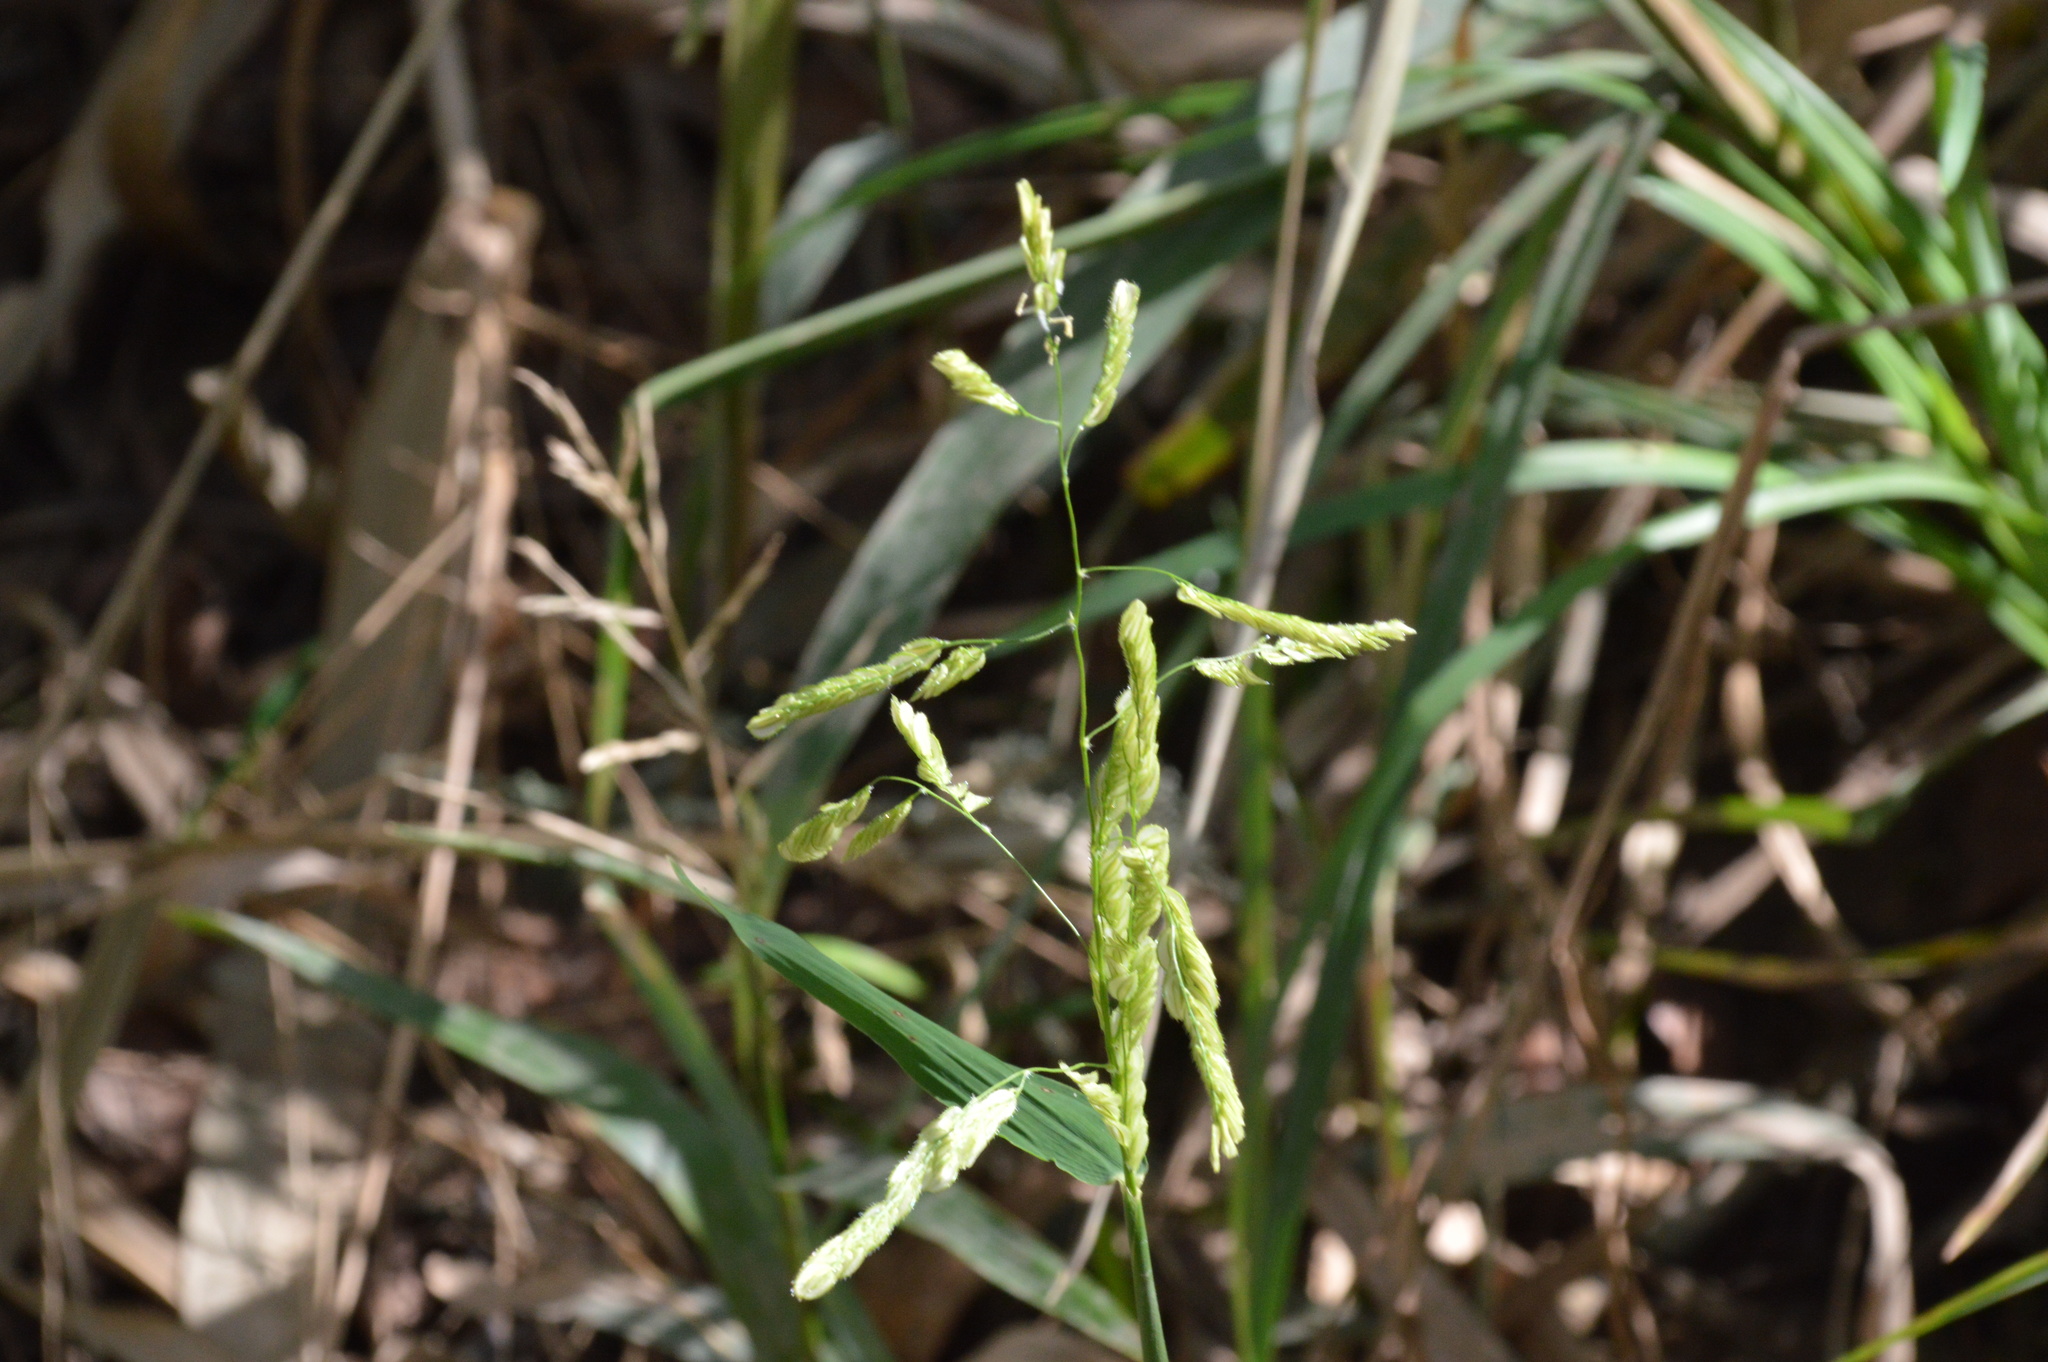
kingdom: Plantae
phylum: Tracheophyta
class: Liliopsida
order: Poales
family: Poaceae
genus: Leersia
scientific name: Leersia lenticularis
